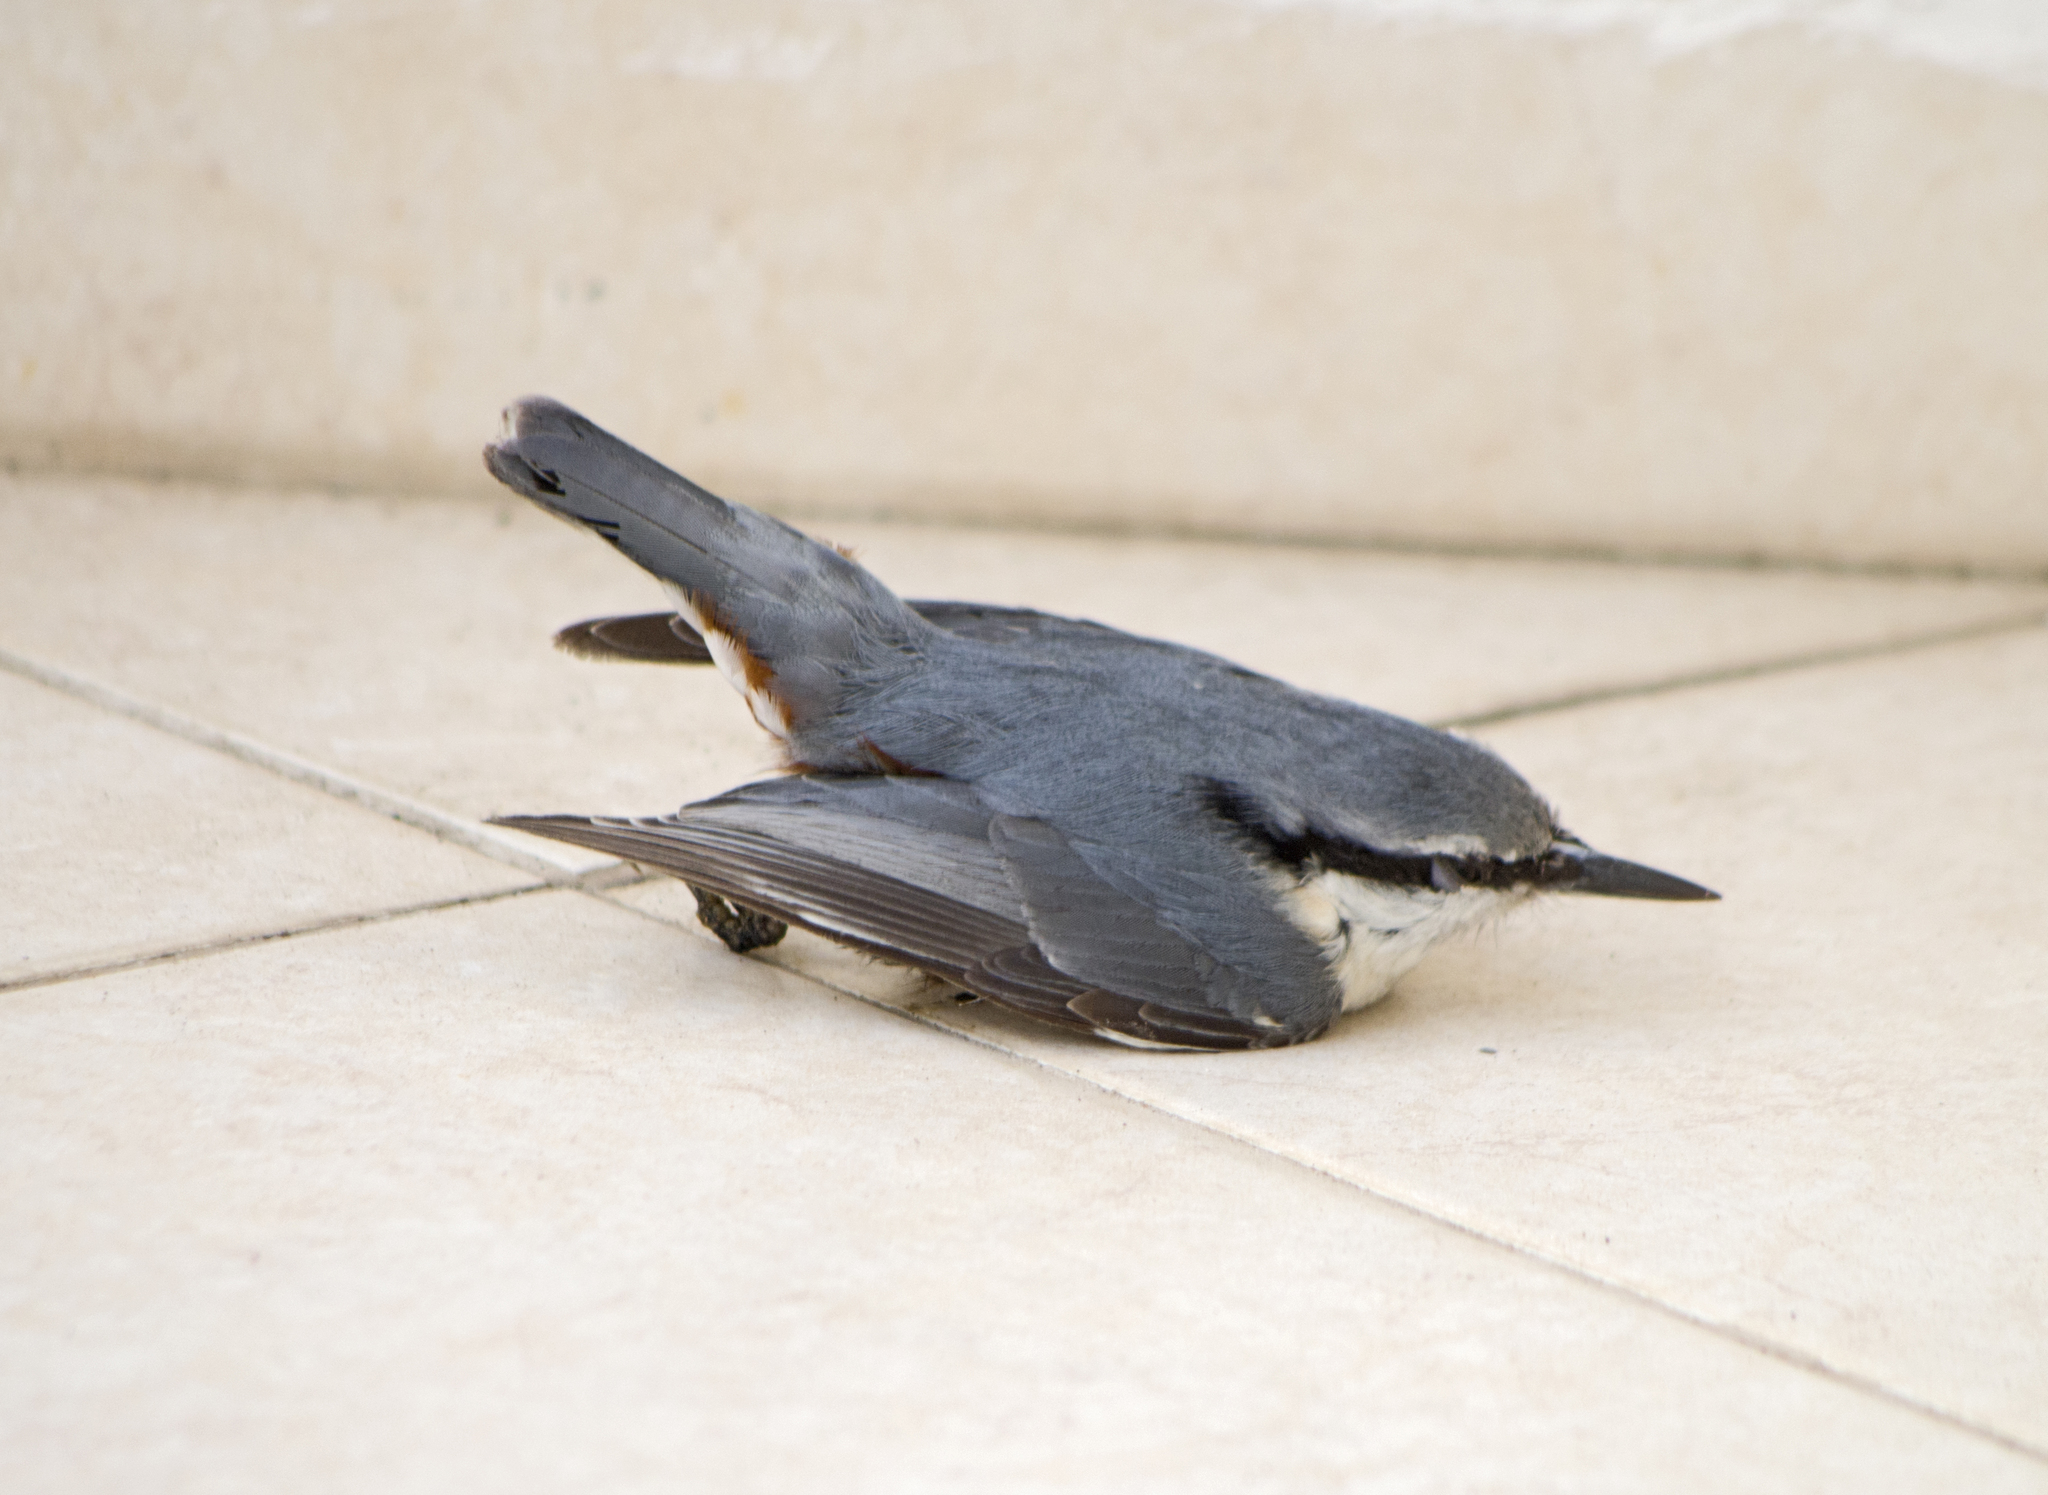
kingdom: Animalia
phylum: Chordata
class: Aves
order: Passeriformes
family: Sittidae
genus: Sitta
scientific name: Sitta europaea
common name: Eurasian nuthatch
